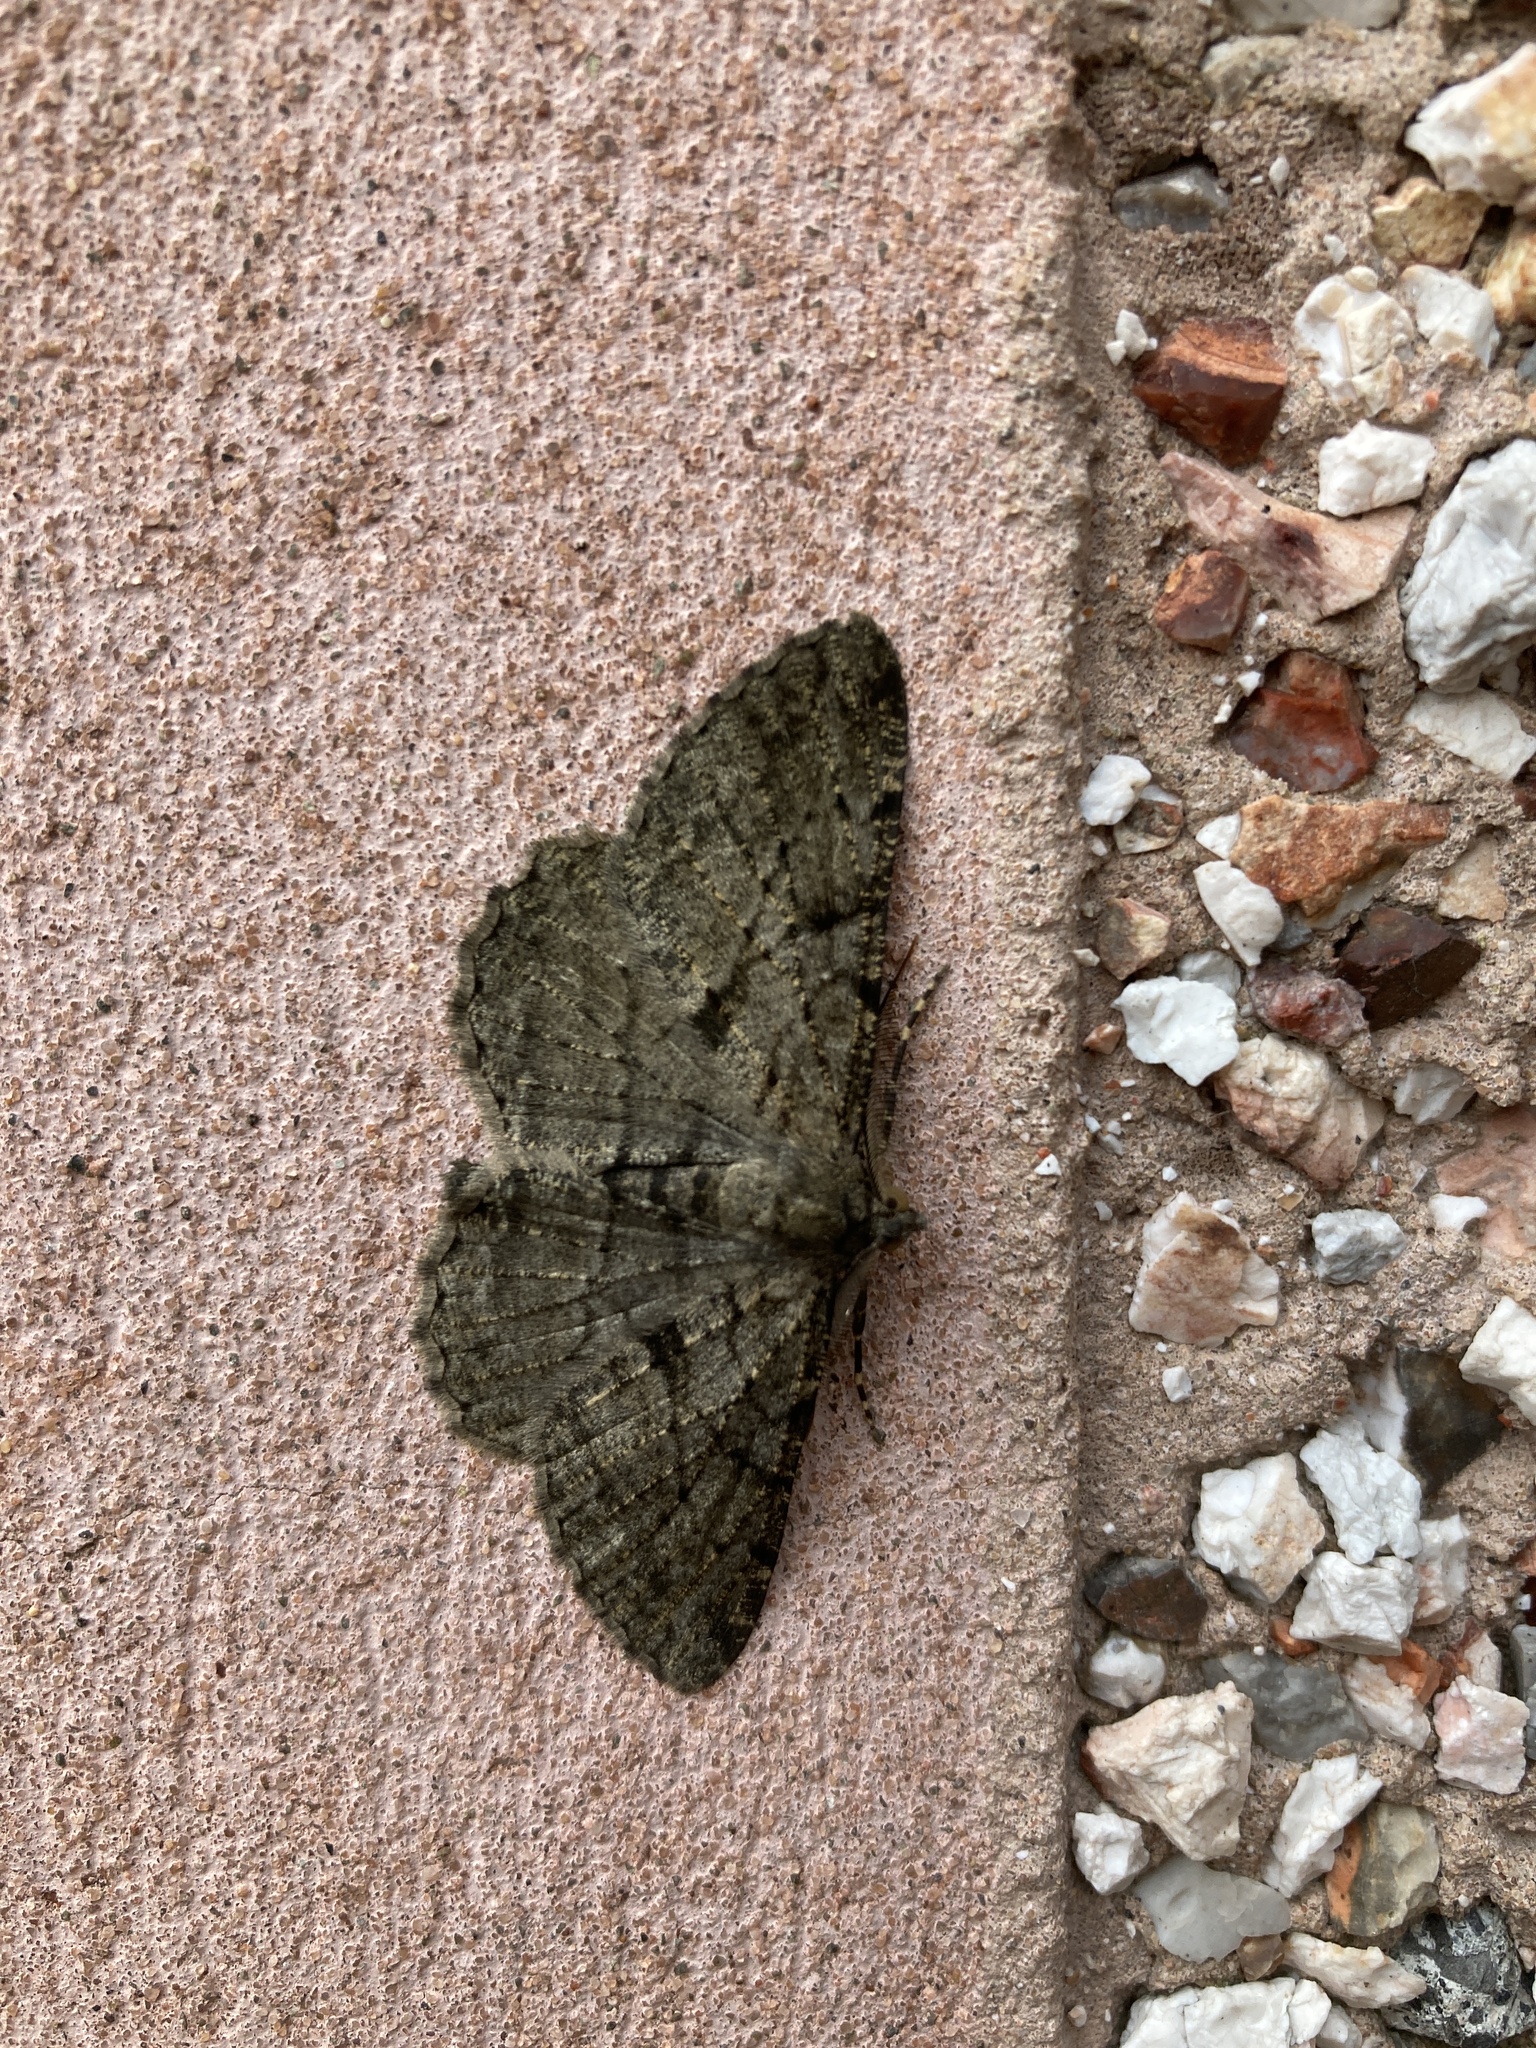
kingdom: Animalia
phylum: Arthropoda
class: Insecta
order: Lepidoptera
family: Geometridae
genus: Peribatodes
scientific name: Peribatodes rhomboidaria
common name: Willow beauty
